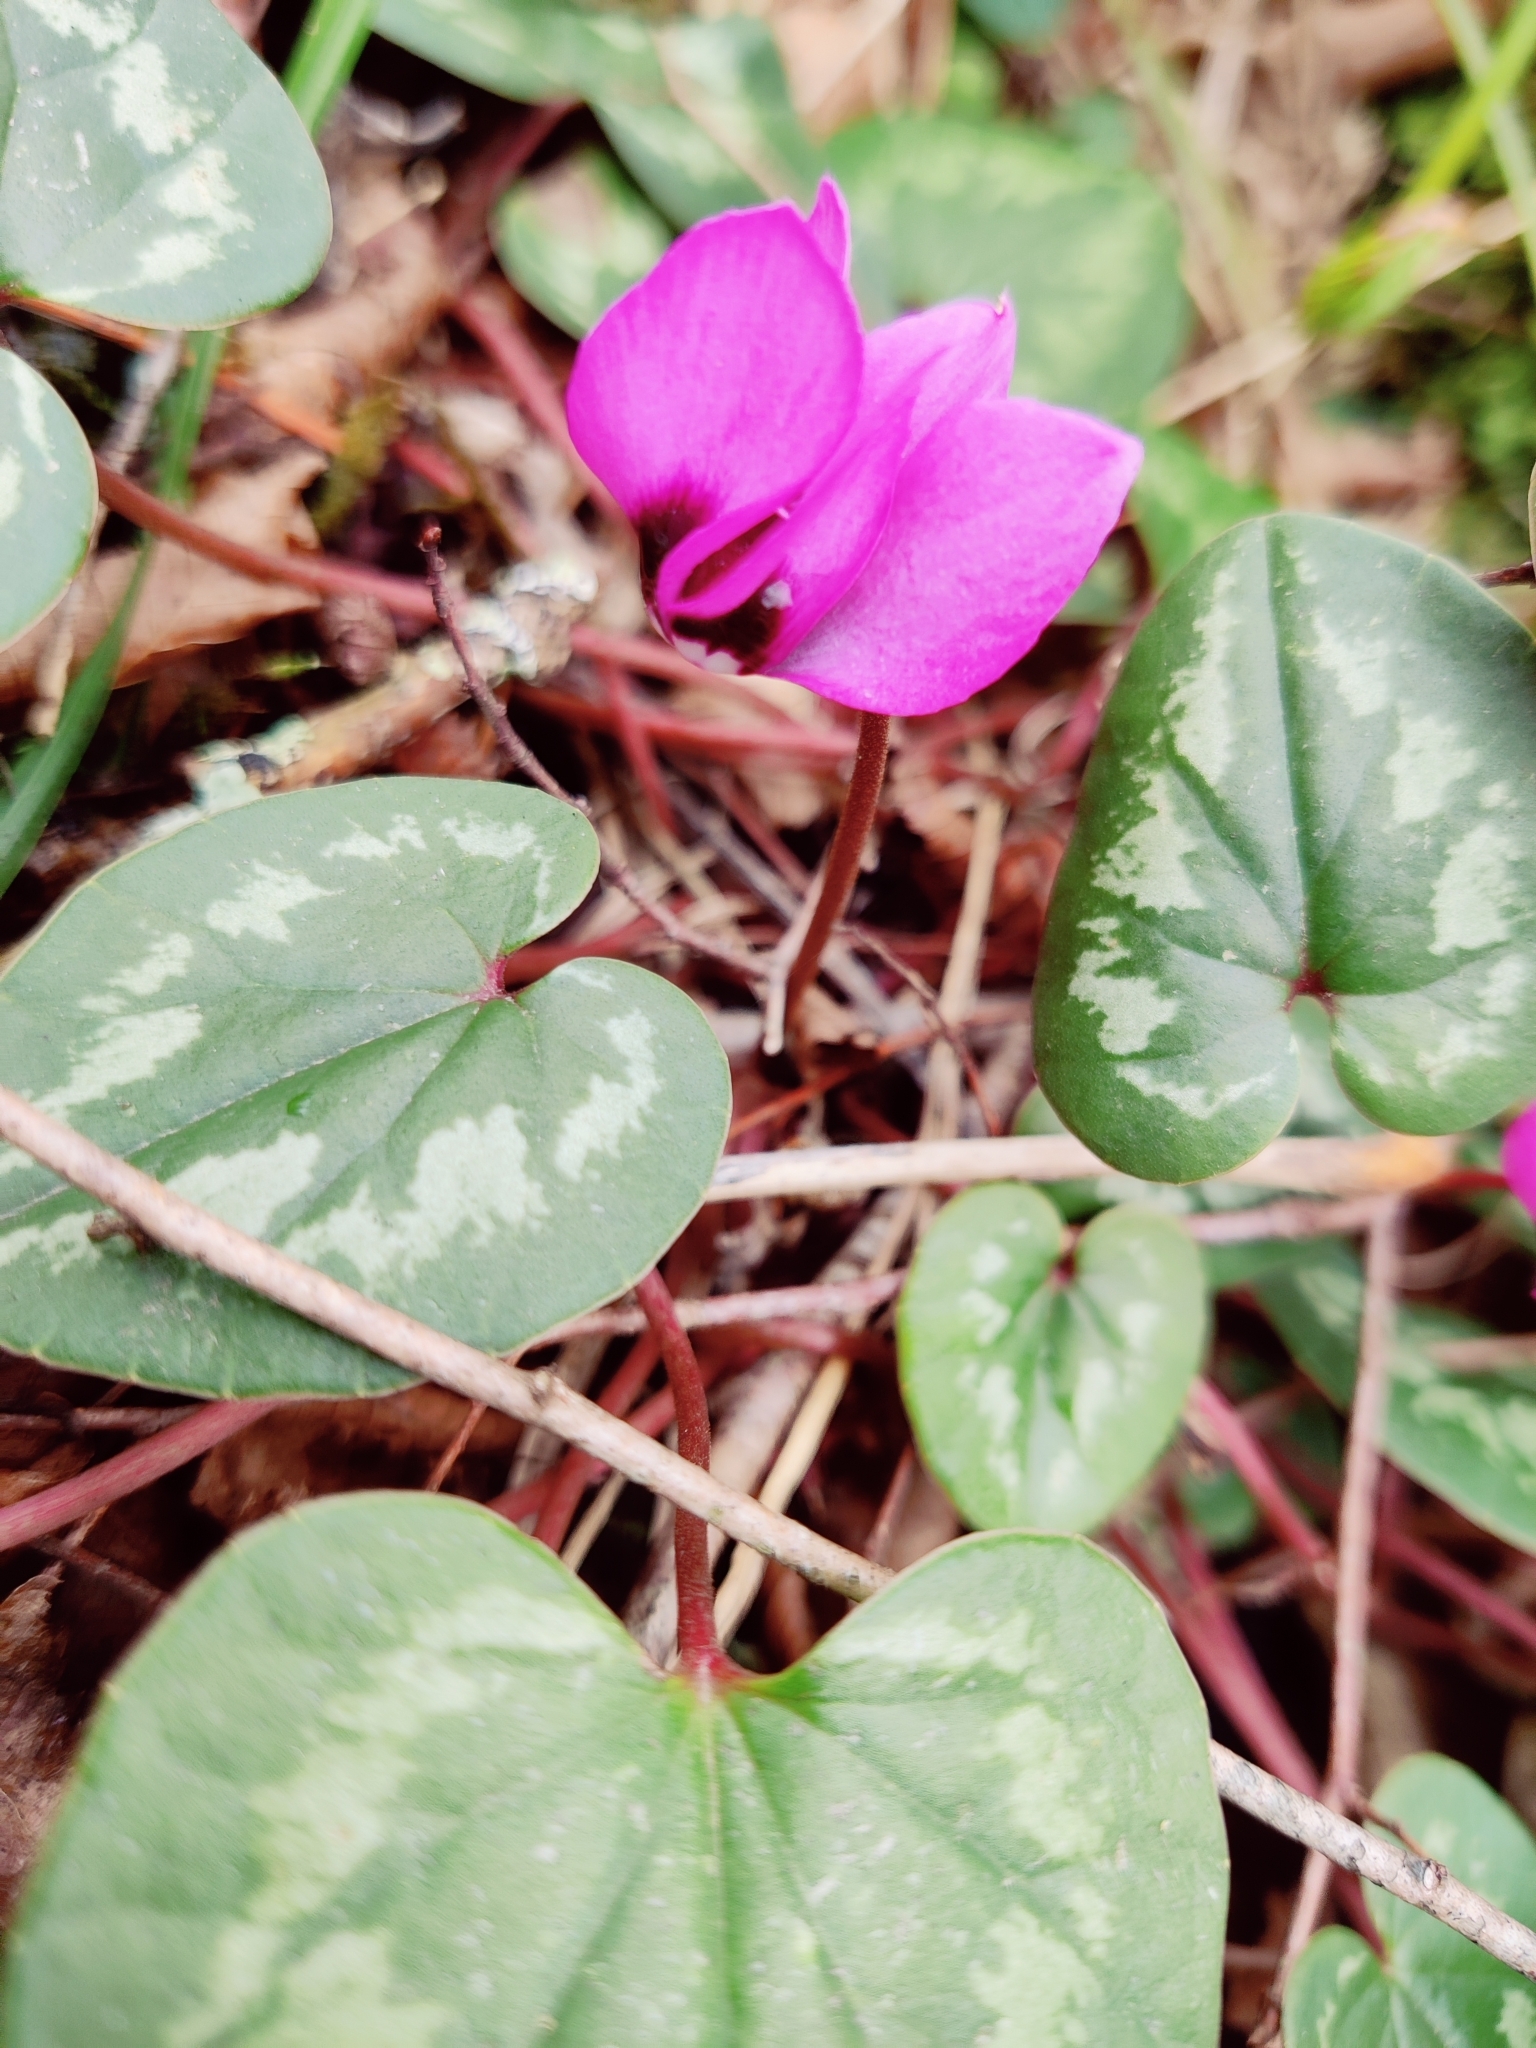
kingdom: Plantae
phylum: Tracheophyta
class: Magnoliopsida
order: Ericales
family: Primulaceae
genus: Cyclamen
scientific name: Cyclamen coum
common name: Eastern sowbread
